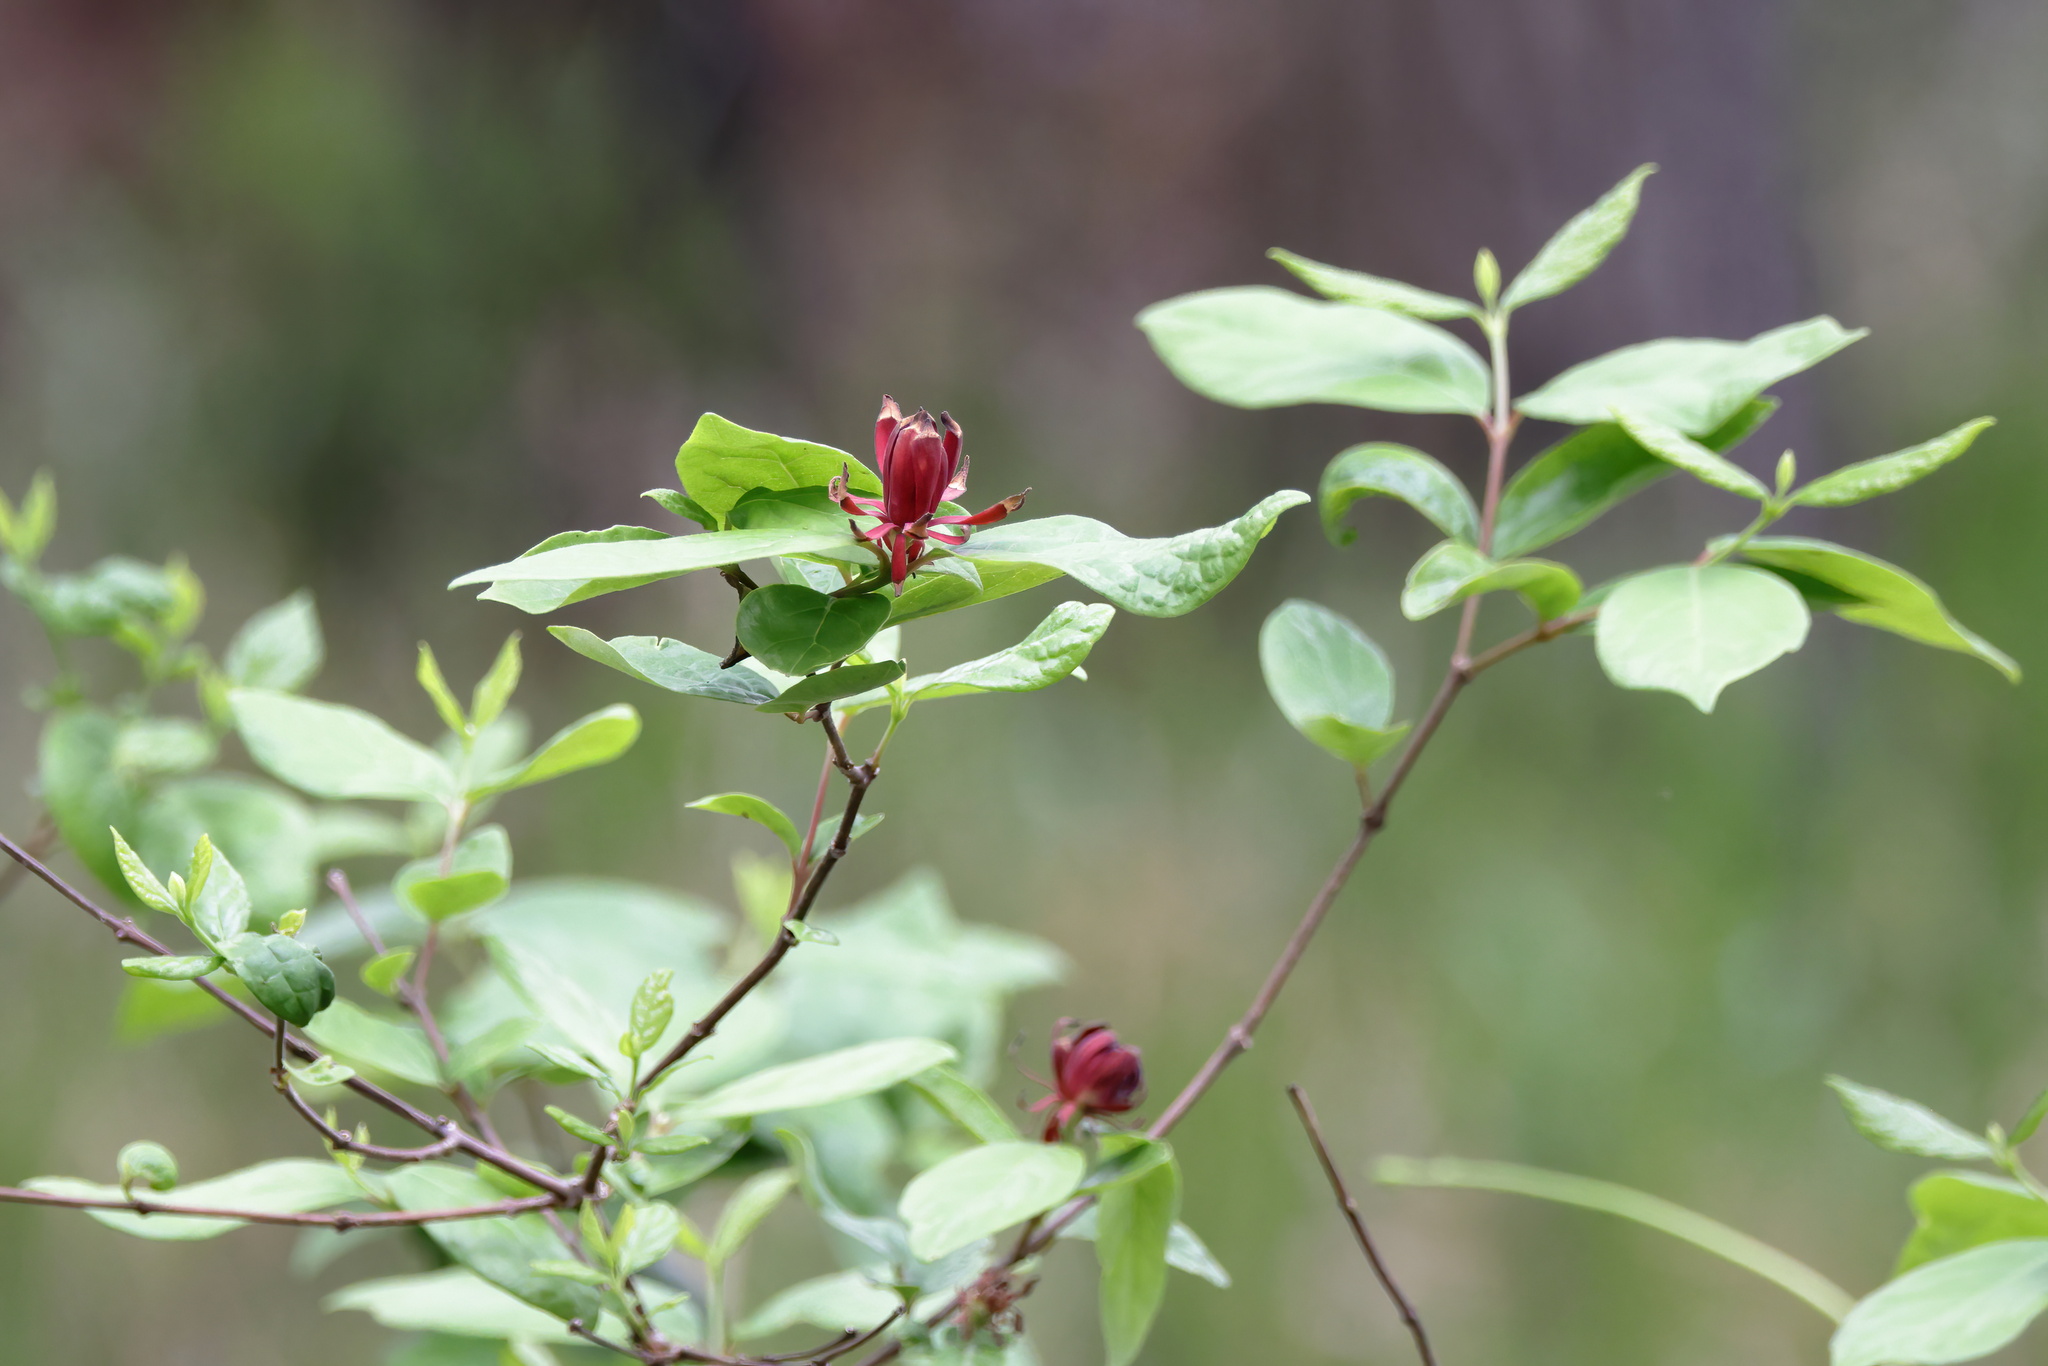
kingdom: Plantae
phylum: Tracheophyta
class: Magnoliopsida
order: Laurales
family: Calycanthaceae
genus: Calycanthus
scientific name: Calycanthus floridus
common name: Carolina-allspice
